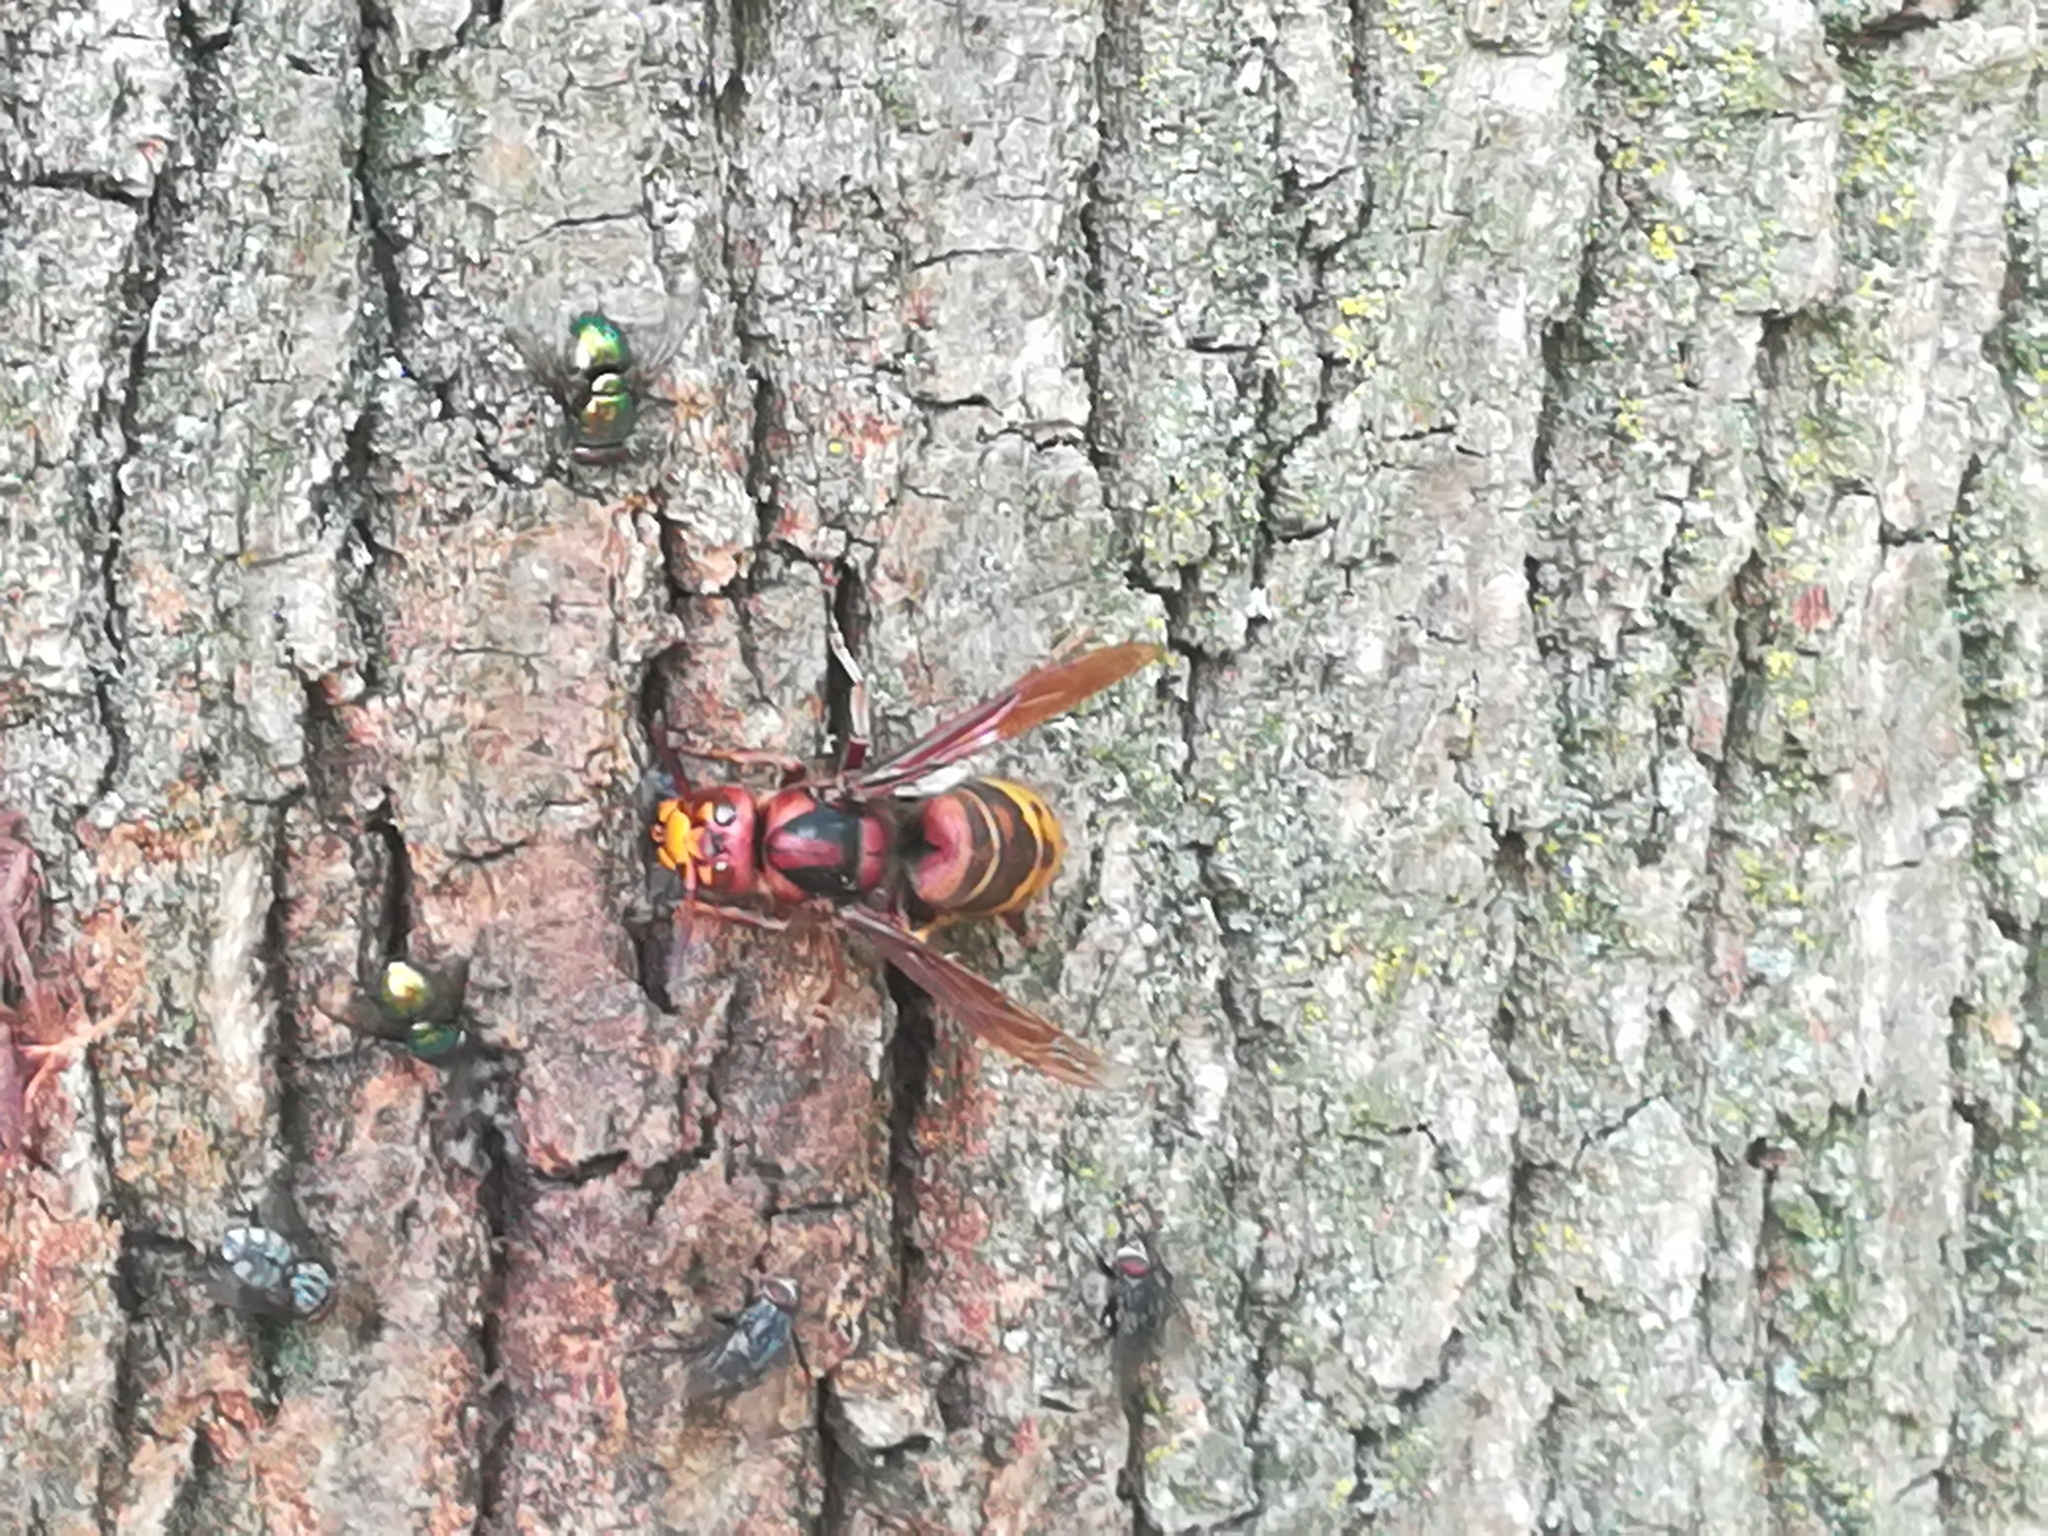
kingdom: Animalia
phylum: Arthropoda
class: Insecta
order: Hymenoptera
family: Vespidae
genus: Vespa
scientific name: Vespa crabro
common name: Hornet
